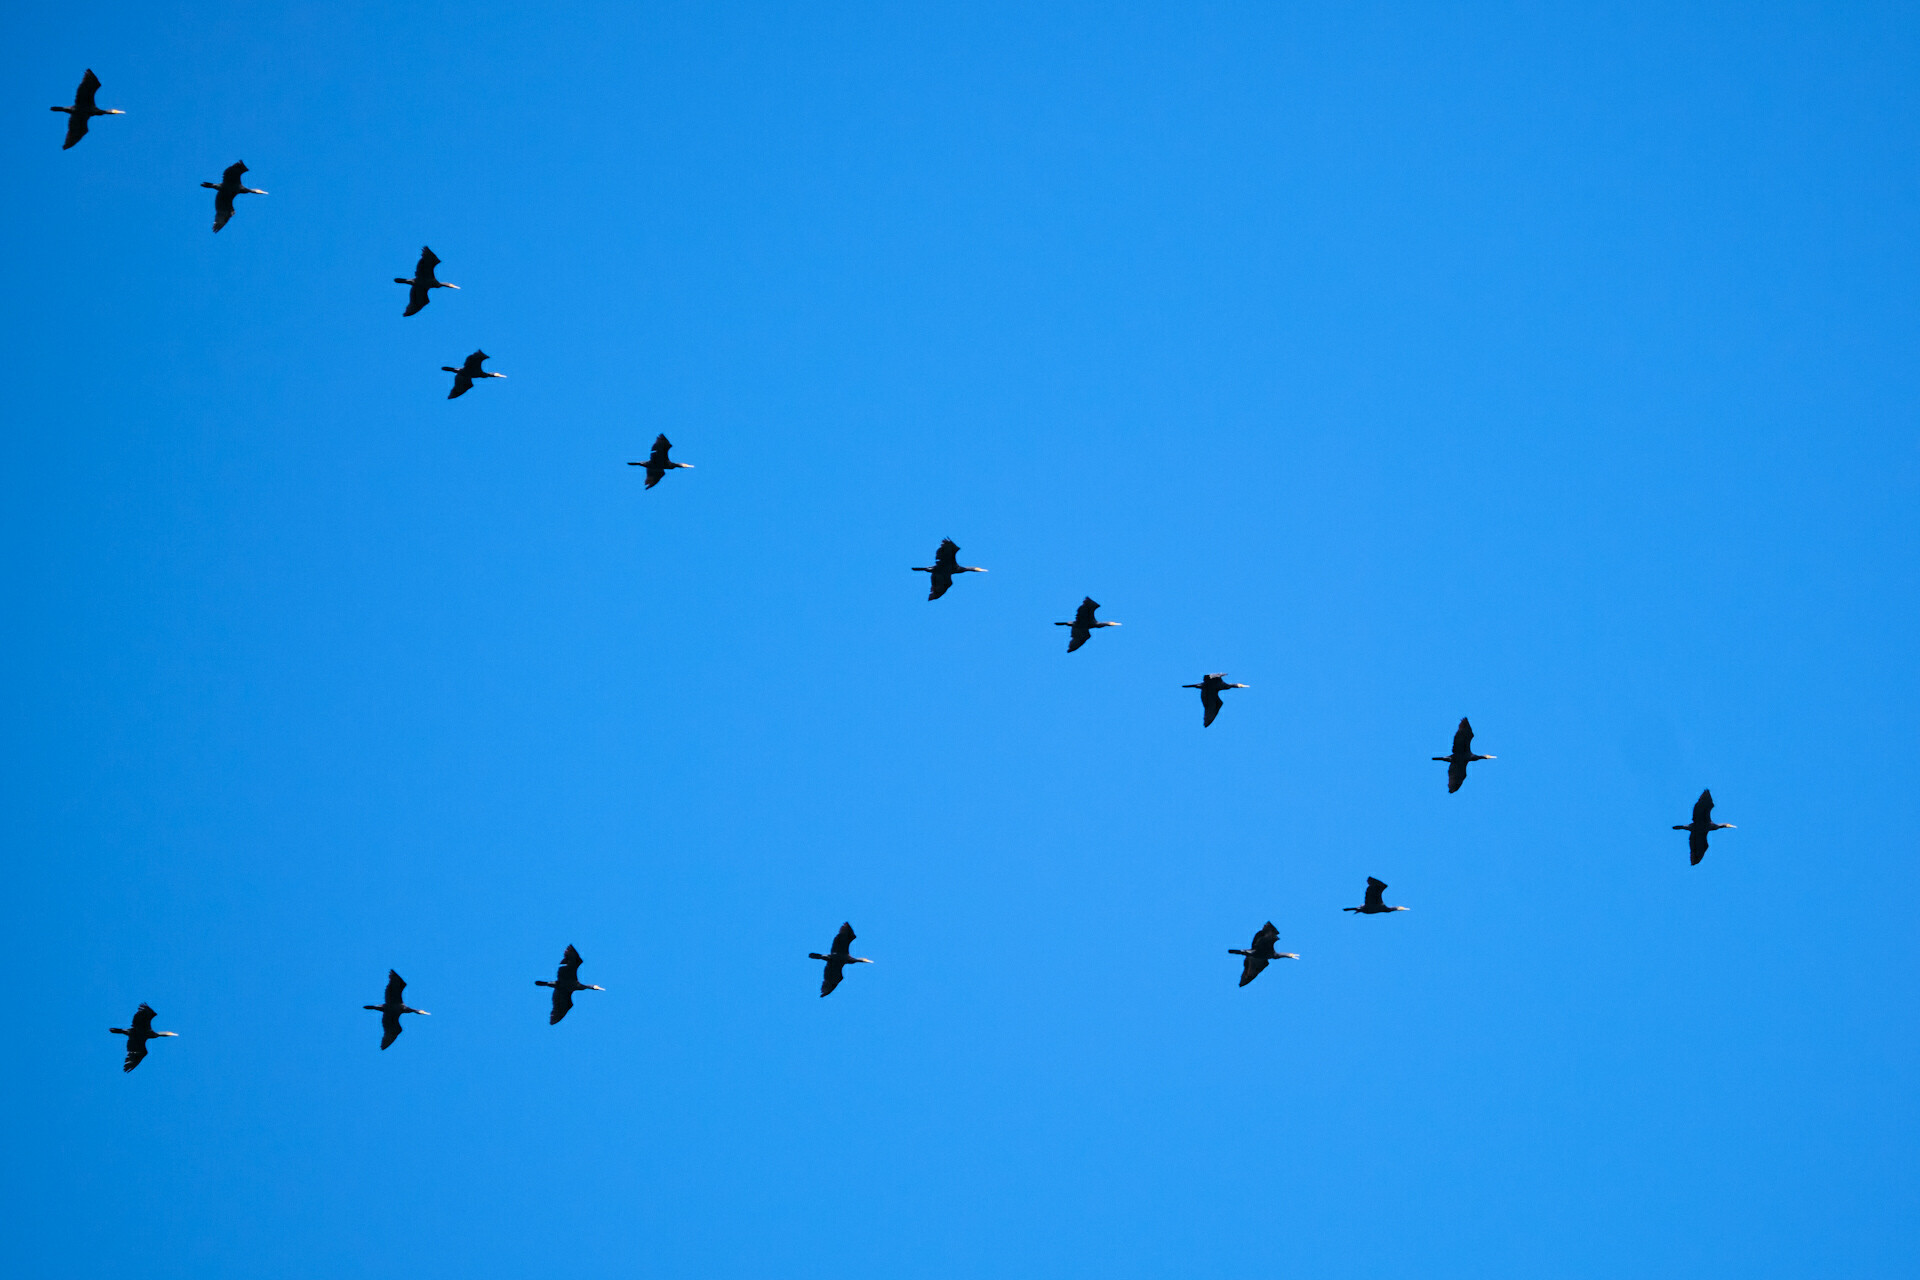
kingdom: Animalia
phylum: Chordata
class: Aves
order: Suliformes
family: Phalacrocoracidae
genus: Phalacrocorax
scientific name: Phalacrocorax carbo
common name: Great cormorant
